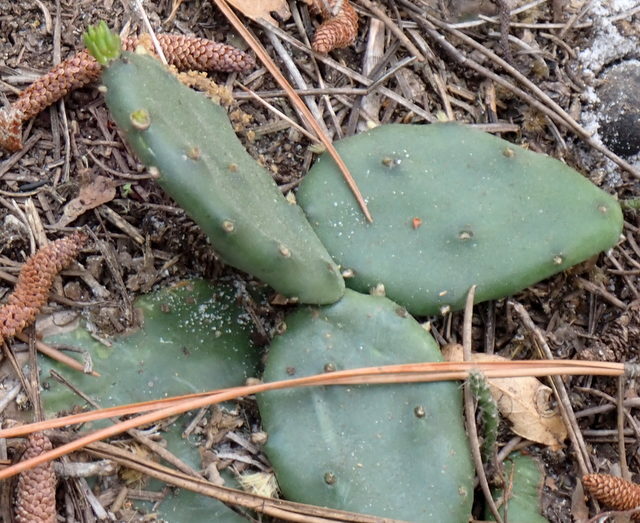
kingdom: Plantae
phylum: Tracheophyta
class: Magnoliopsida
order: Caryophyllales
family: Cactaceae
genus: Opuntia
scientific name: Opuntia mesacantha
